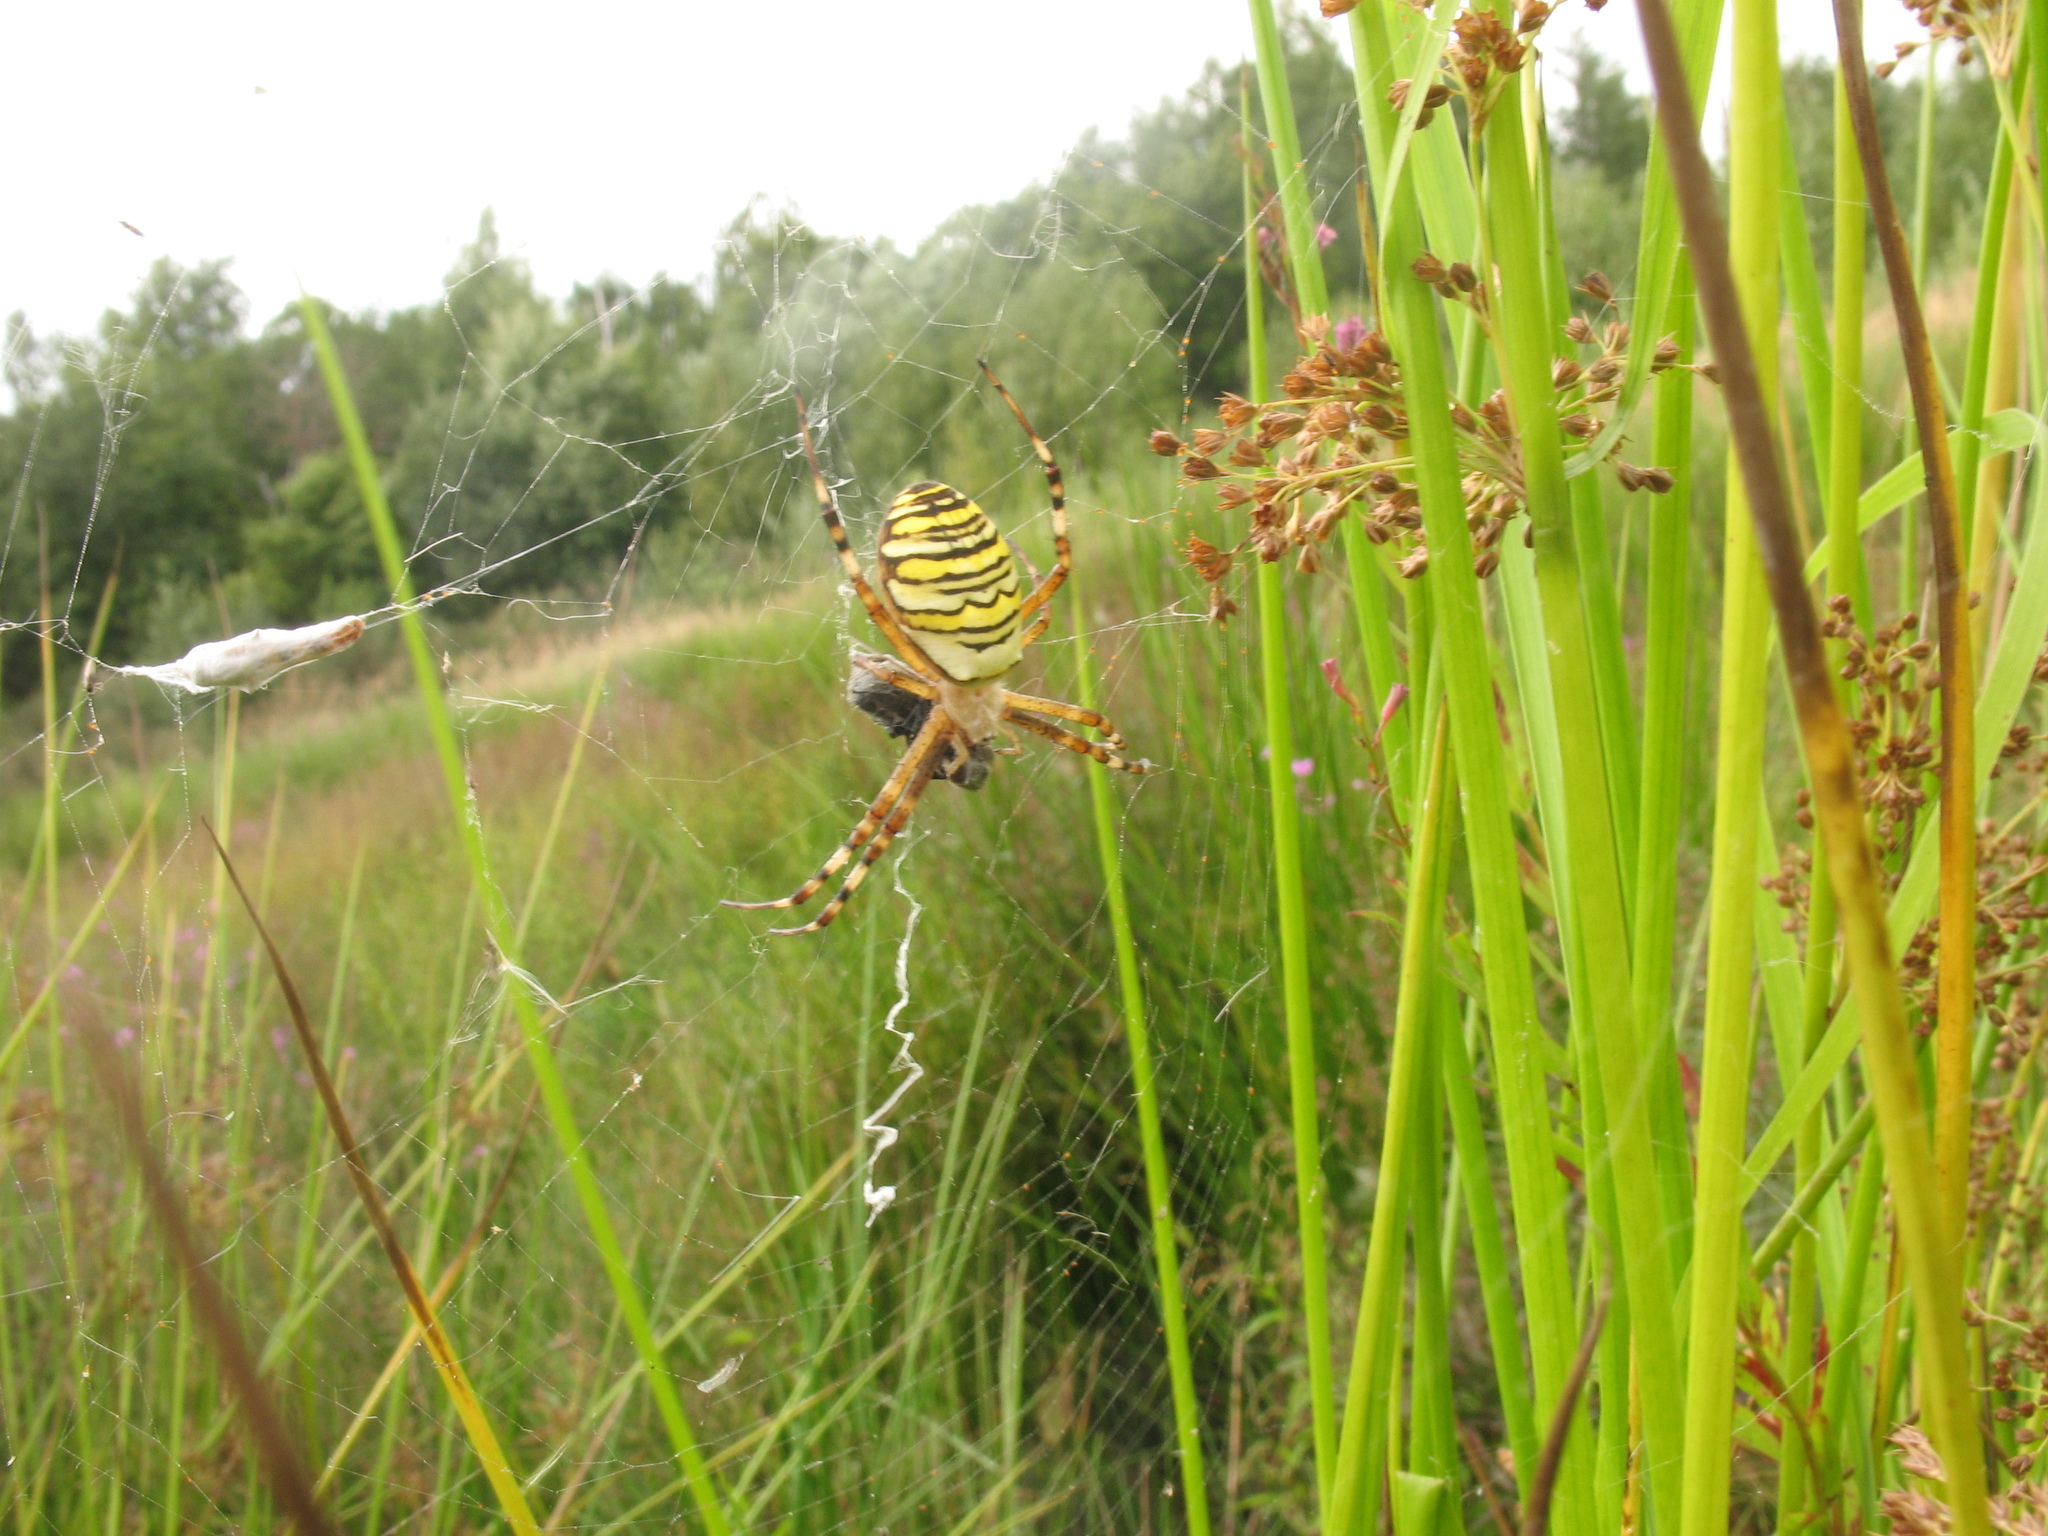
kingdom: Animalia
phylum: Arthropoda
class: Arachnida
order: Araneae
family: Araneidae
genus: Argiope
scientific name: Argiope bruennichi
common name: Wasp spider
